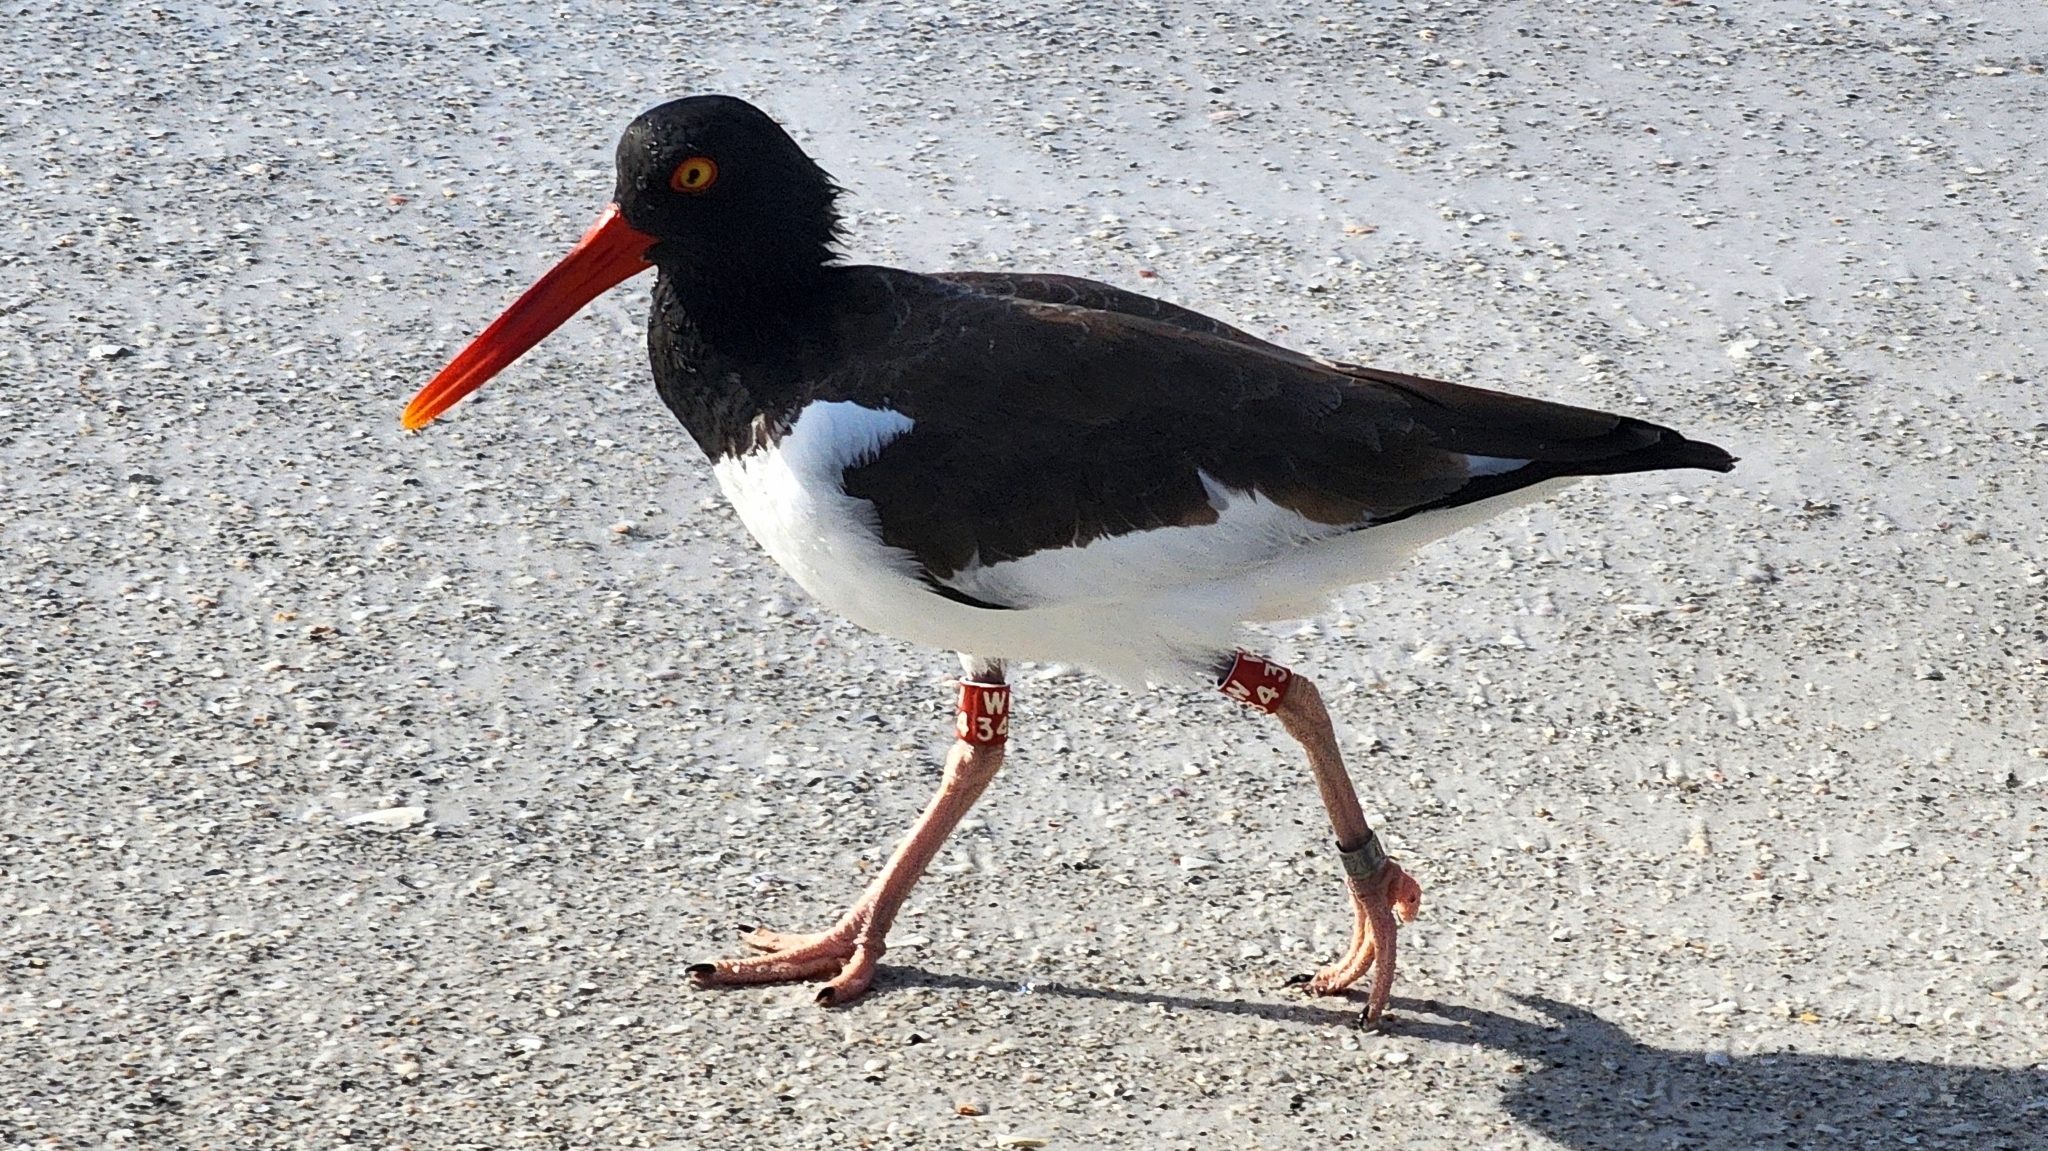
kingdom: Animalia
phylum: Chordata
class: Aves
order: Charadriiformes
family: Haematopodidae
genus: Haematopus
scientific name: Haematopus palliatus
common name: American oystercatcher
